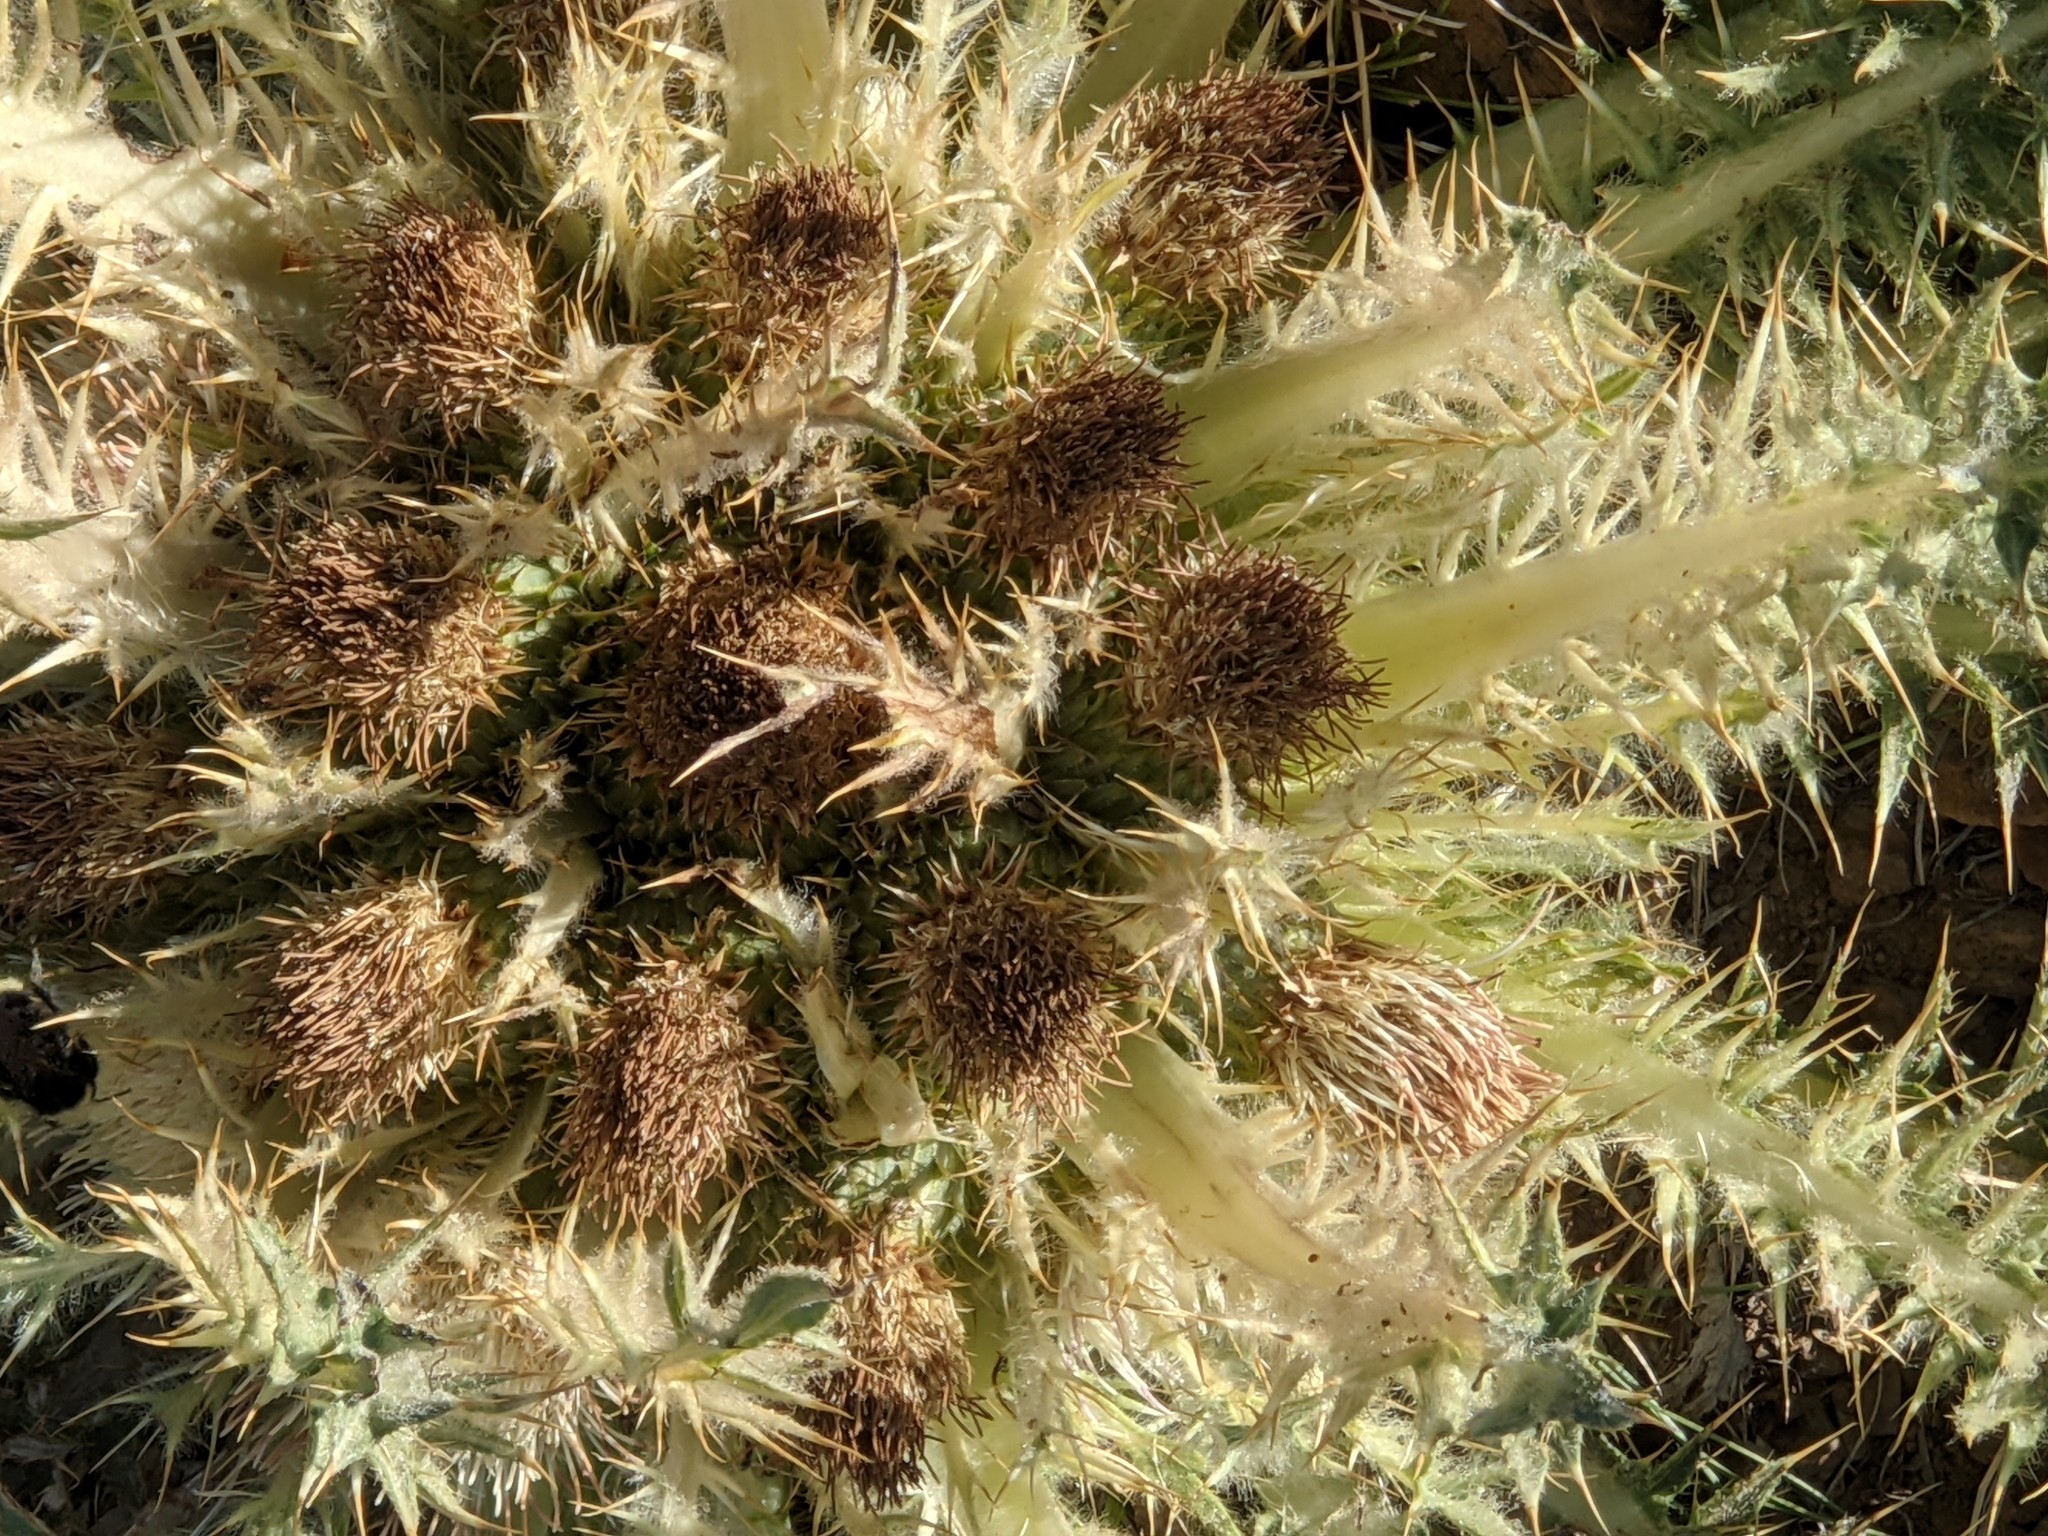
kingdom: Plantae
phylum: Tracheophyta
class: Magnoliopsida
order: Asterales
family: Asteraceae
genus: Cirsium
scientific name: Cirsium scariosum
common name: Meadow thistle
